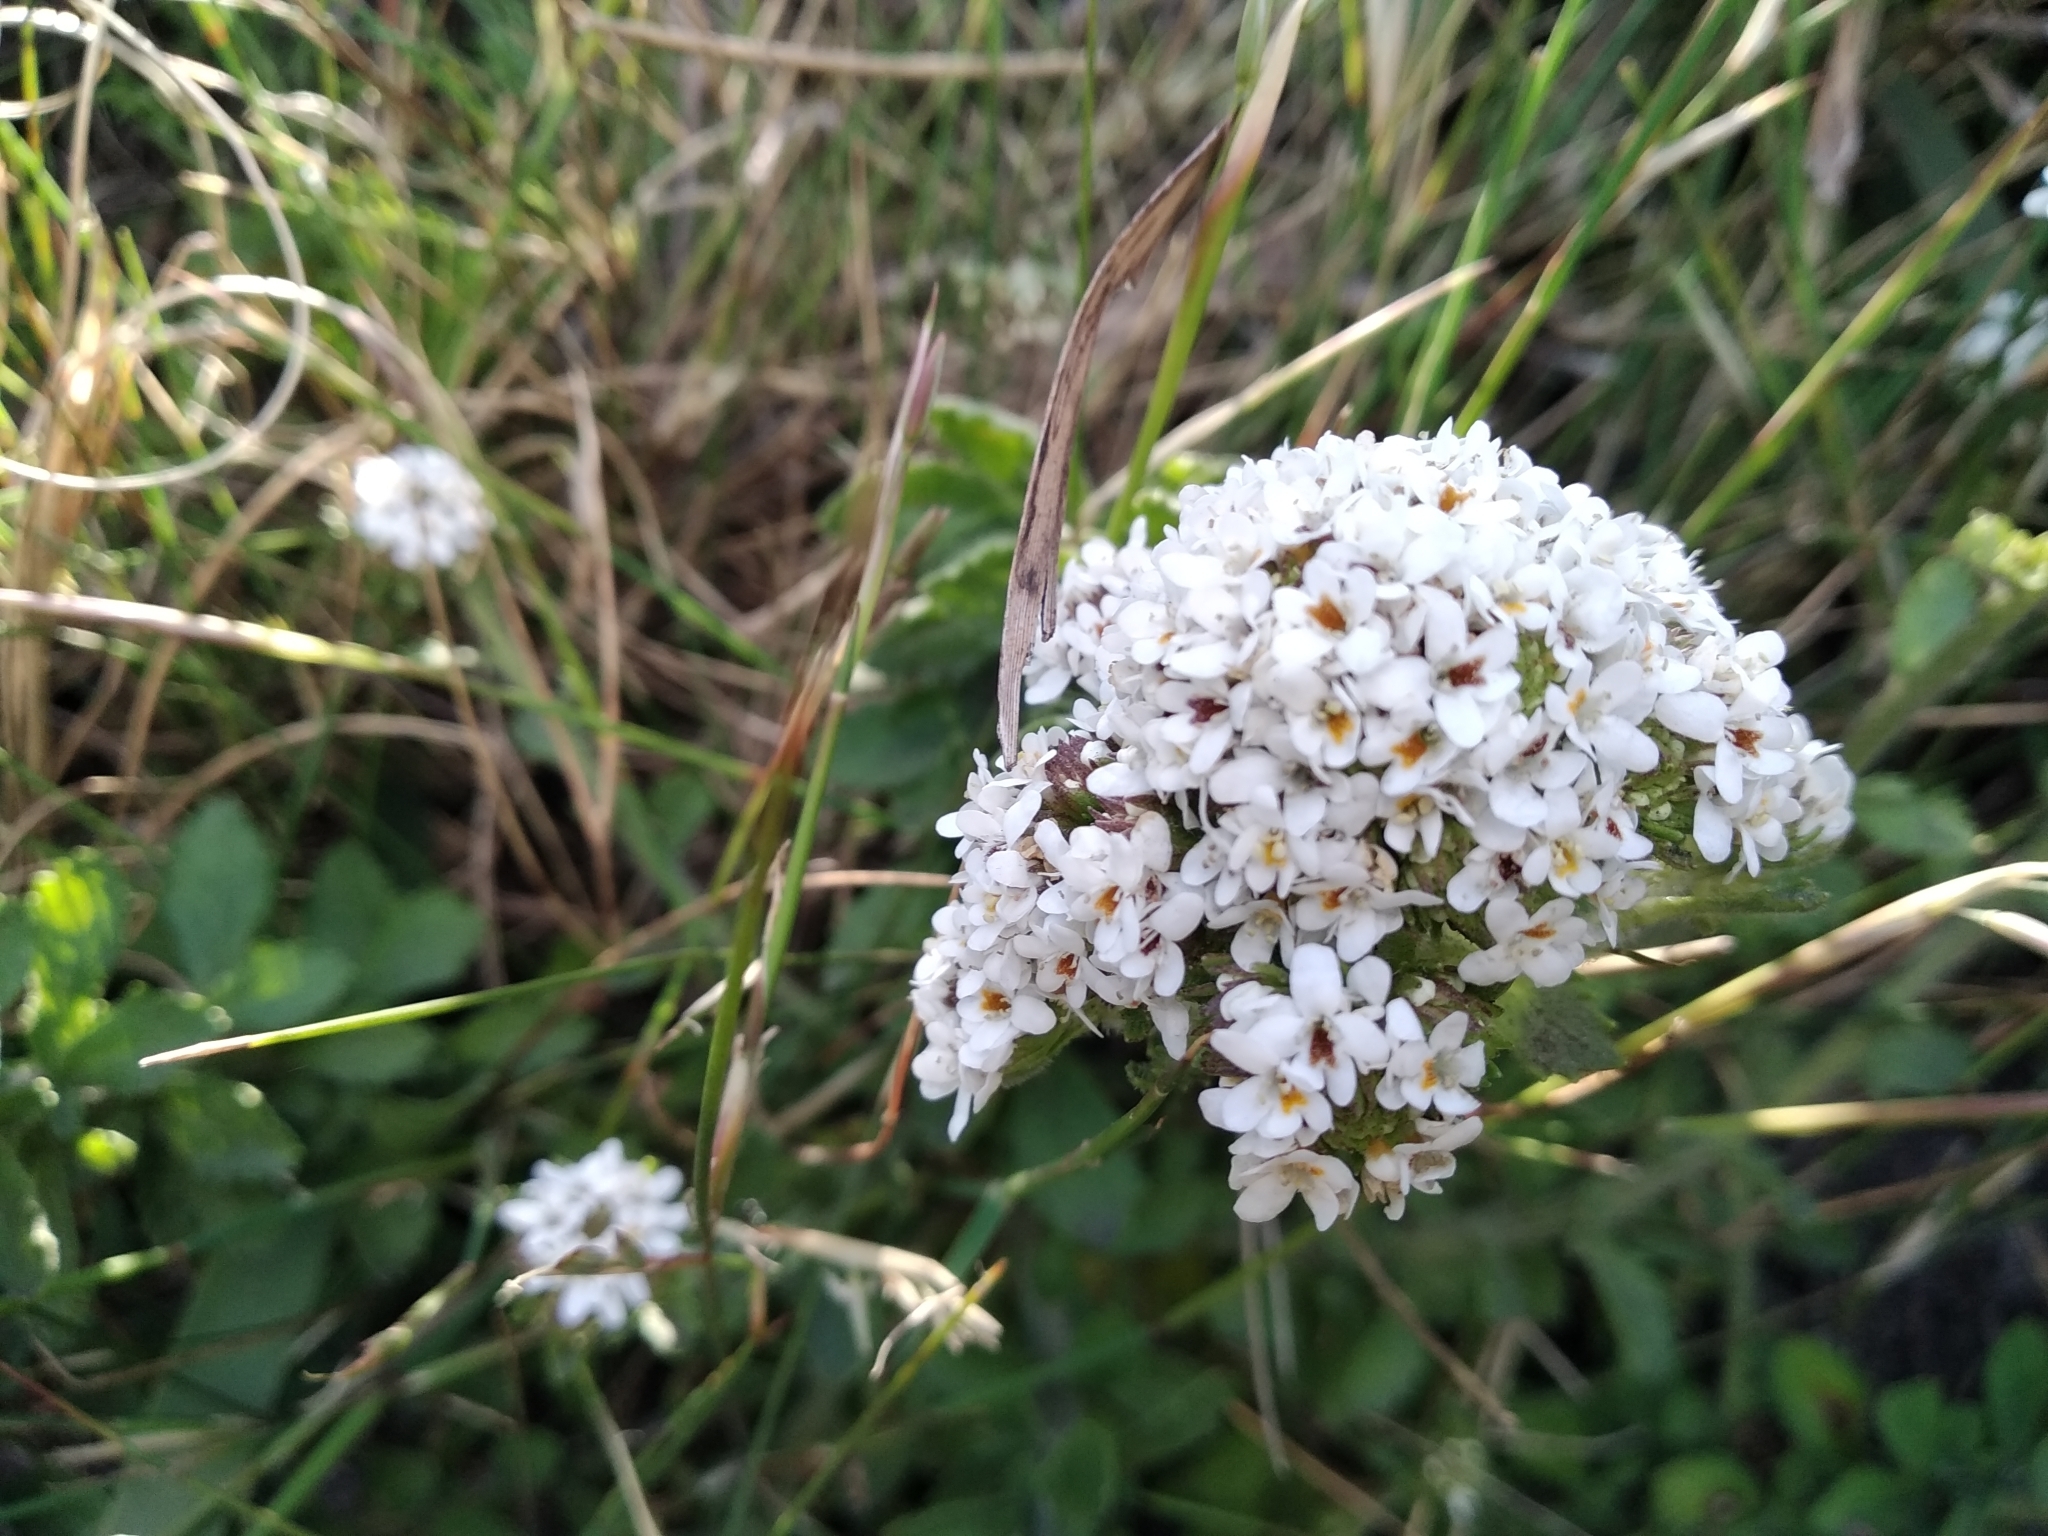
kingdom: Plantae
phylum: Tracheophyta
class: Magnoliopsida
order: Lamiales
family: Scrophulariaceae
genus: Pseudoselago
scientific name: Pseudoselago peninsulae
